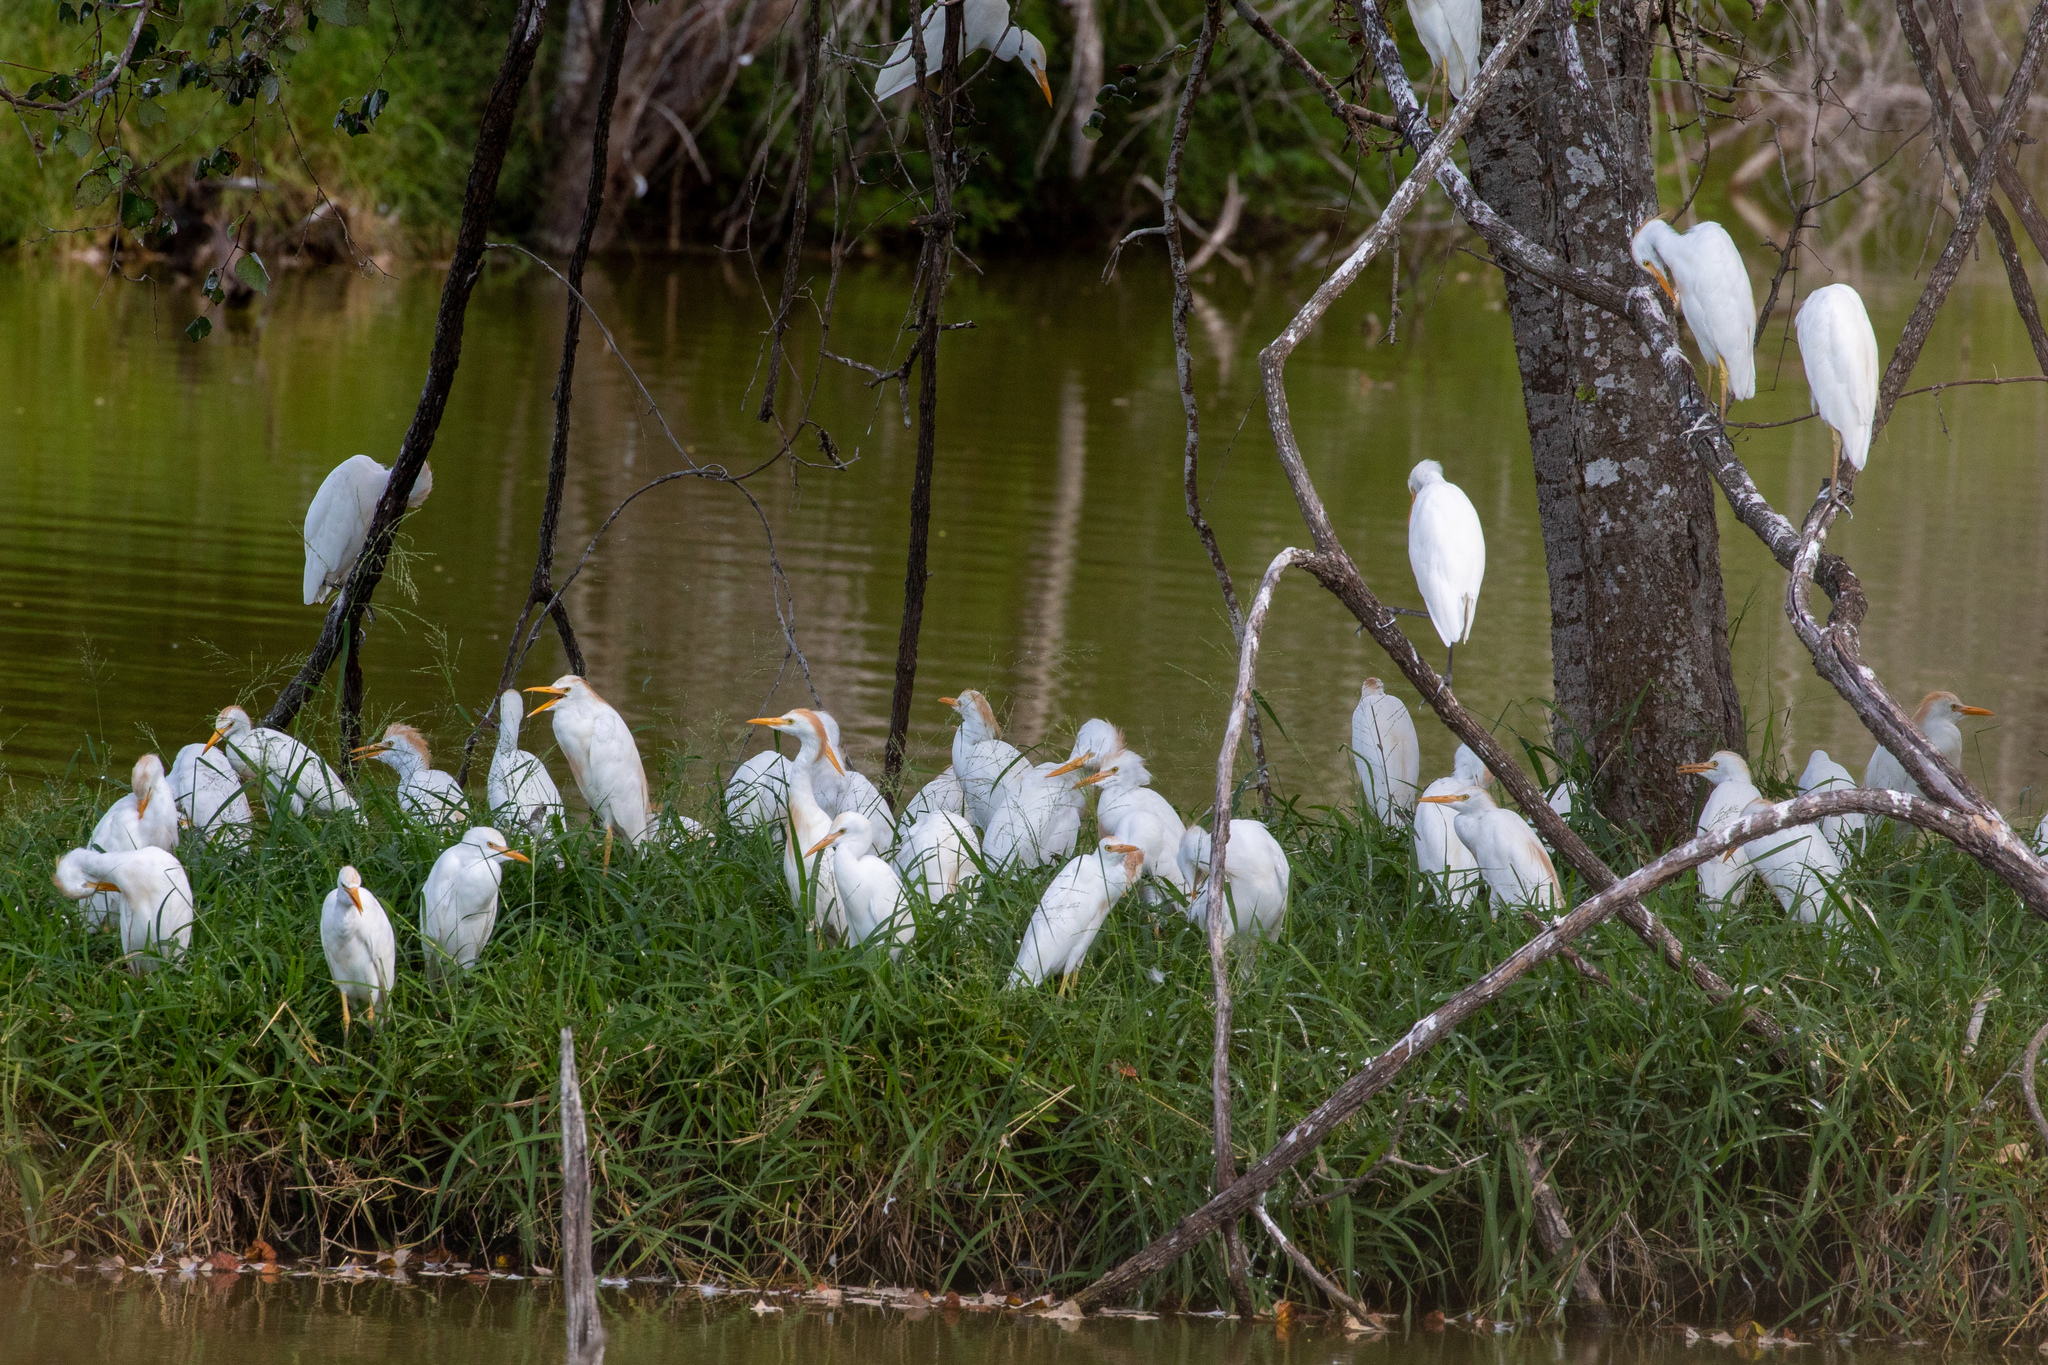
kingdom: Animalia
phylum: Chordata
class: Aves
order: Pelecaniformes
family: Ardeidae
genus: Bubulcus
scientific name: Bubulcus ibis
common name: Cattle egret
